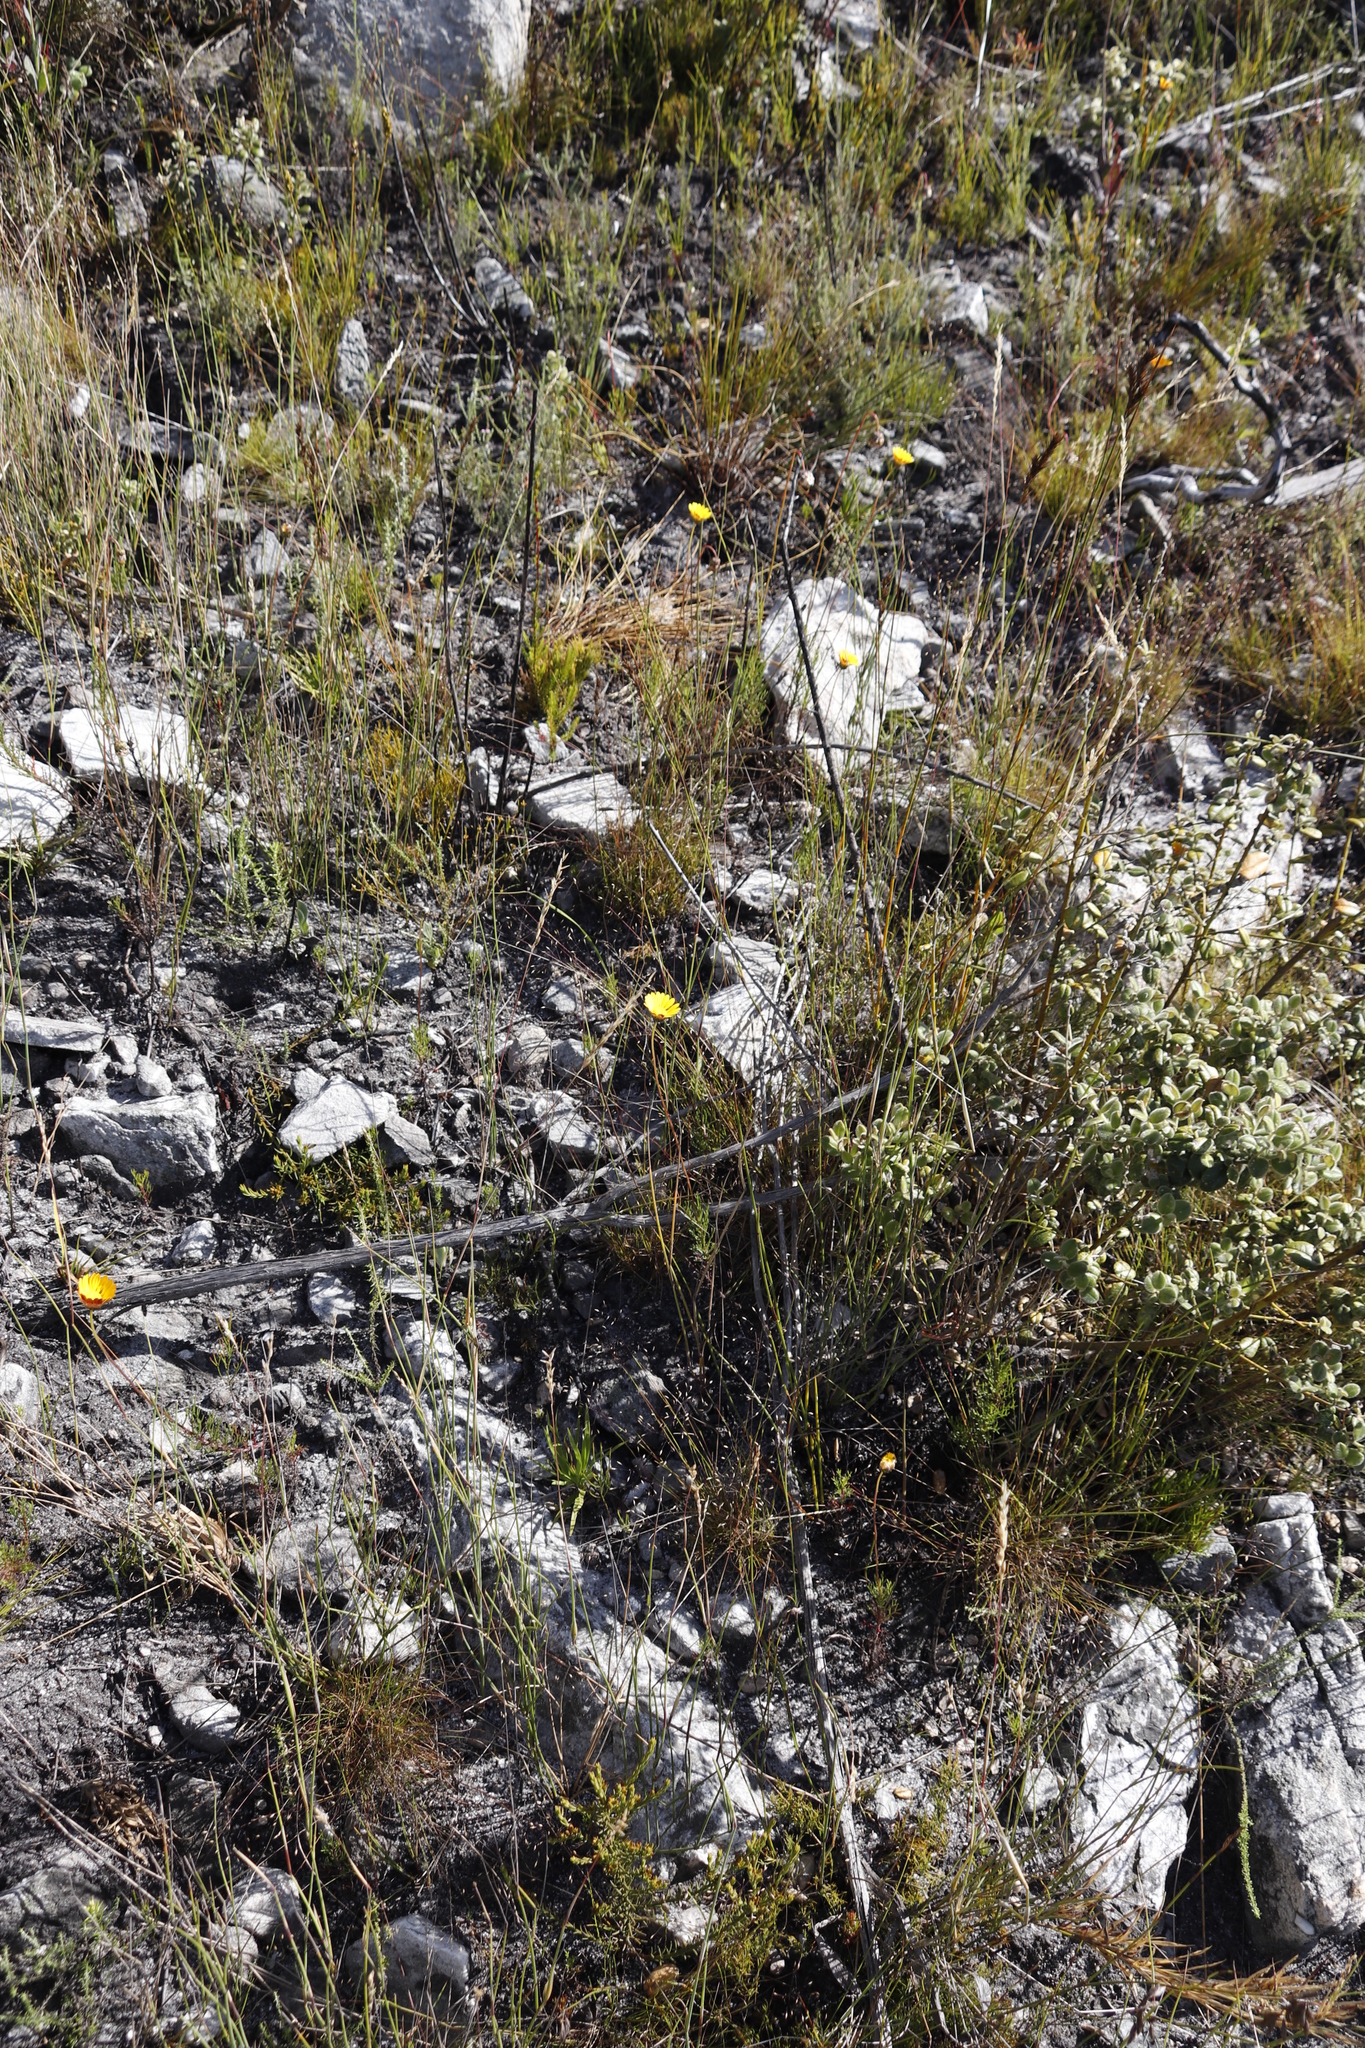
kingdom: Plantae
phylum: Tracheophyta
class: Magnoliopsida
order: Asterales
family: Asteraceae
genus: Ursinia
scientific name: Ursinia paleacea
